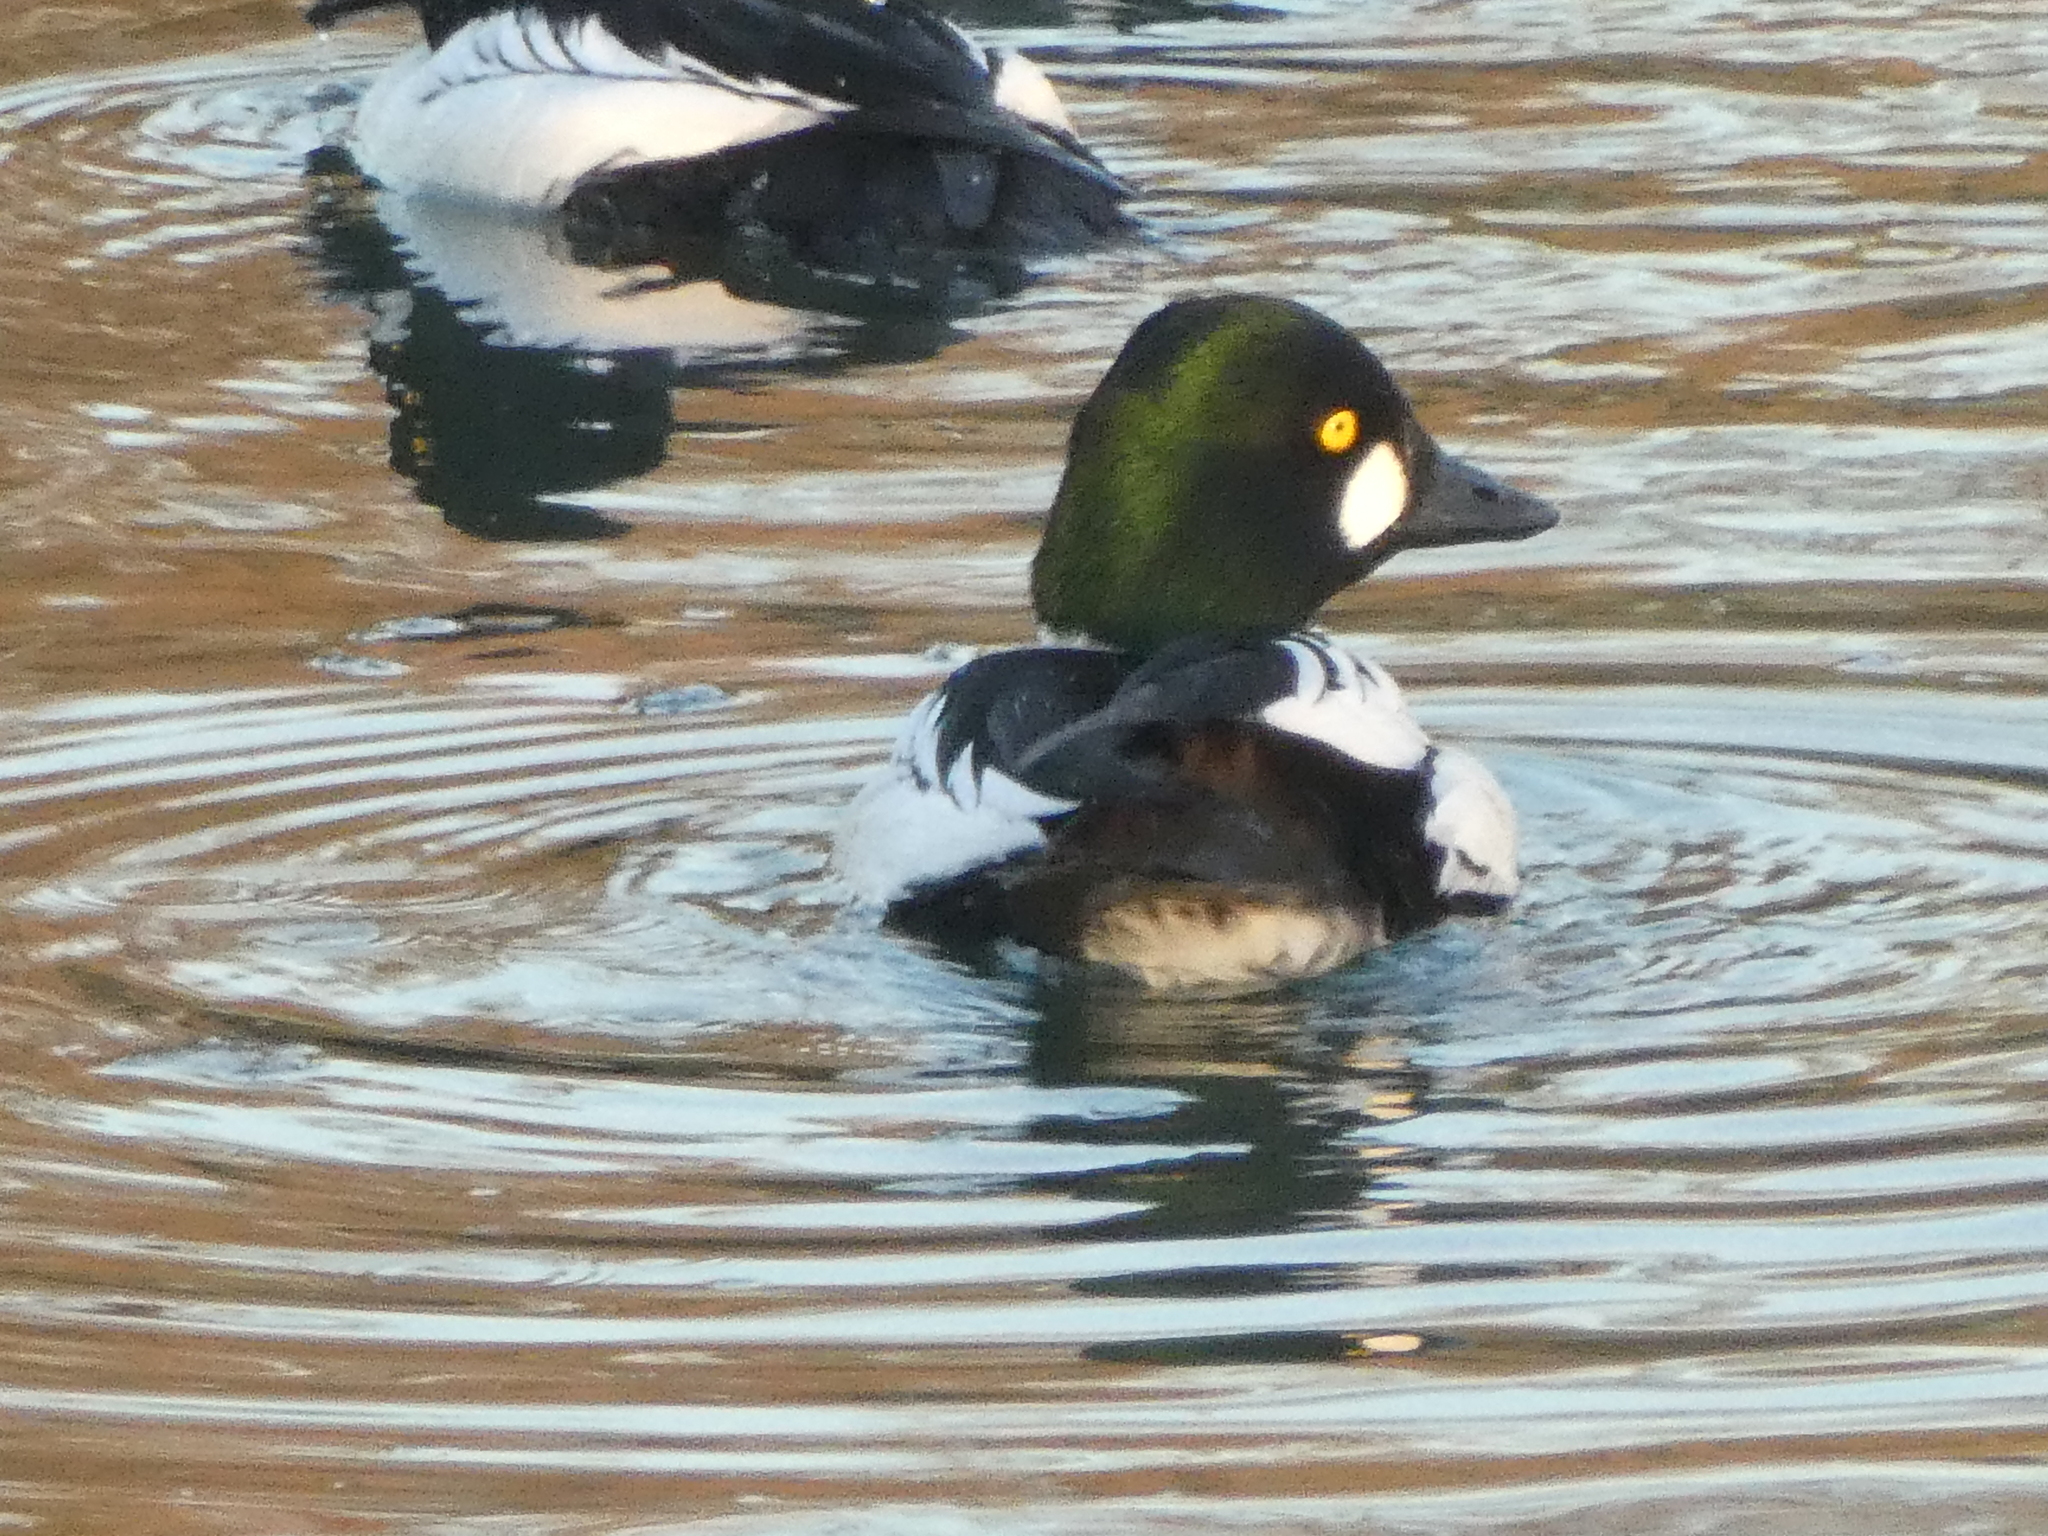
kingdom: Animalia
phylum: Chordata
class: Aves
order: Anseriformes
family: Anatidae
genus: Bucephala
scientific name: Bucephala clangula
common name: Common goldeneye
